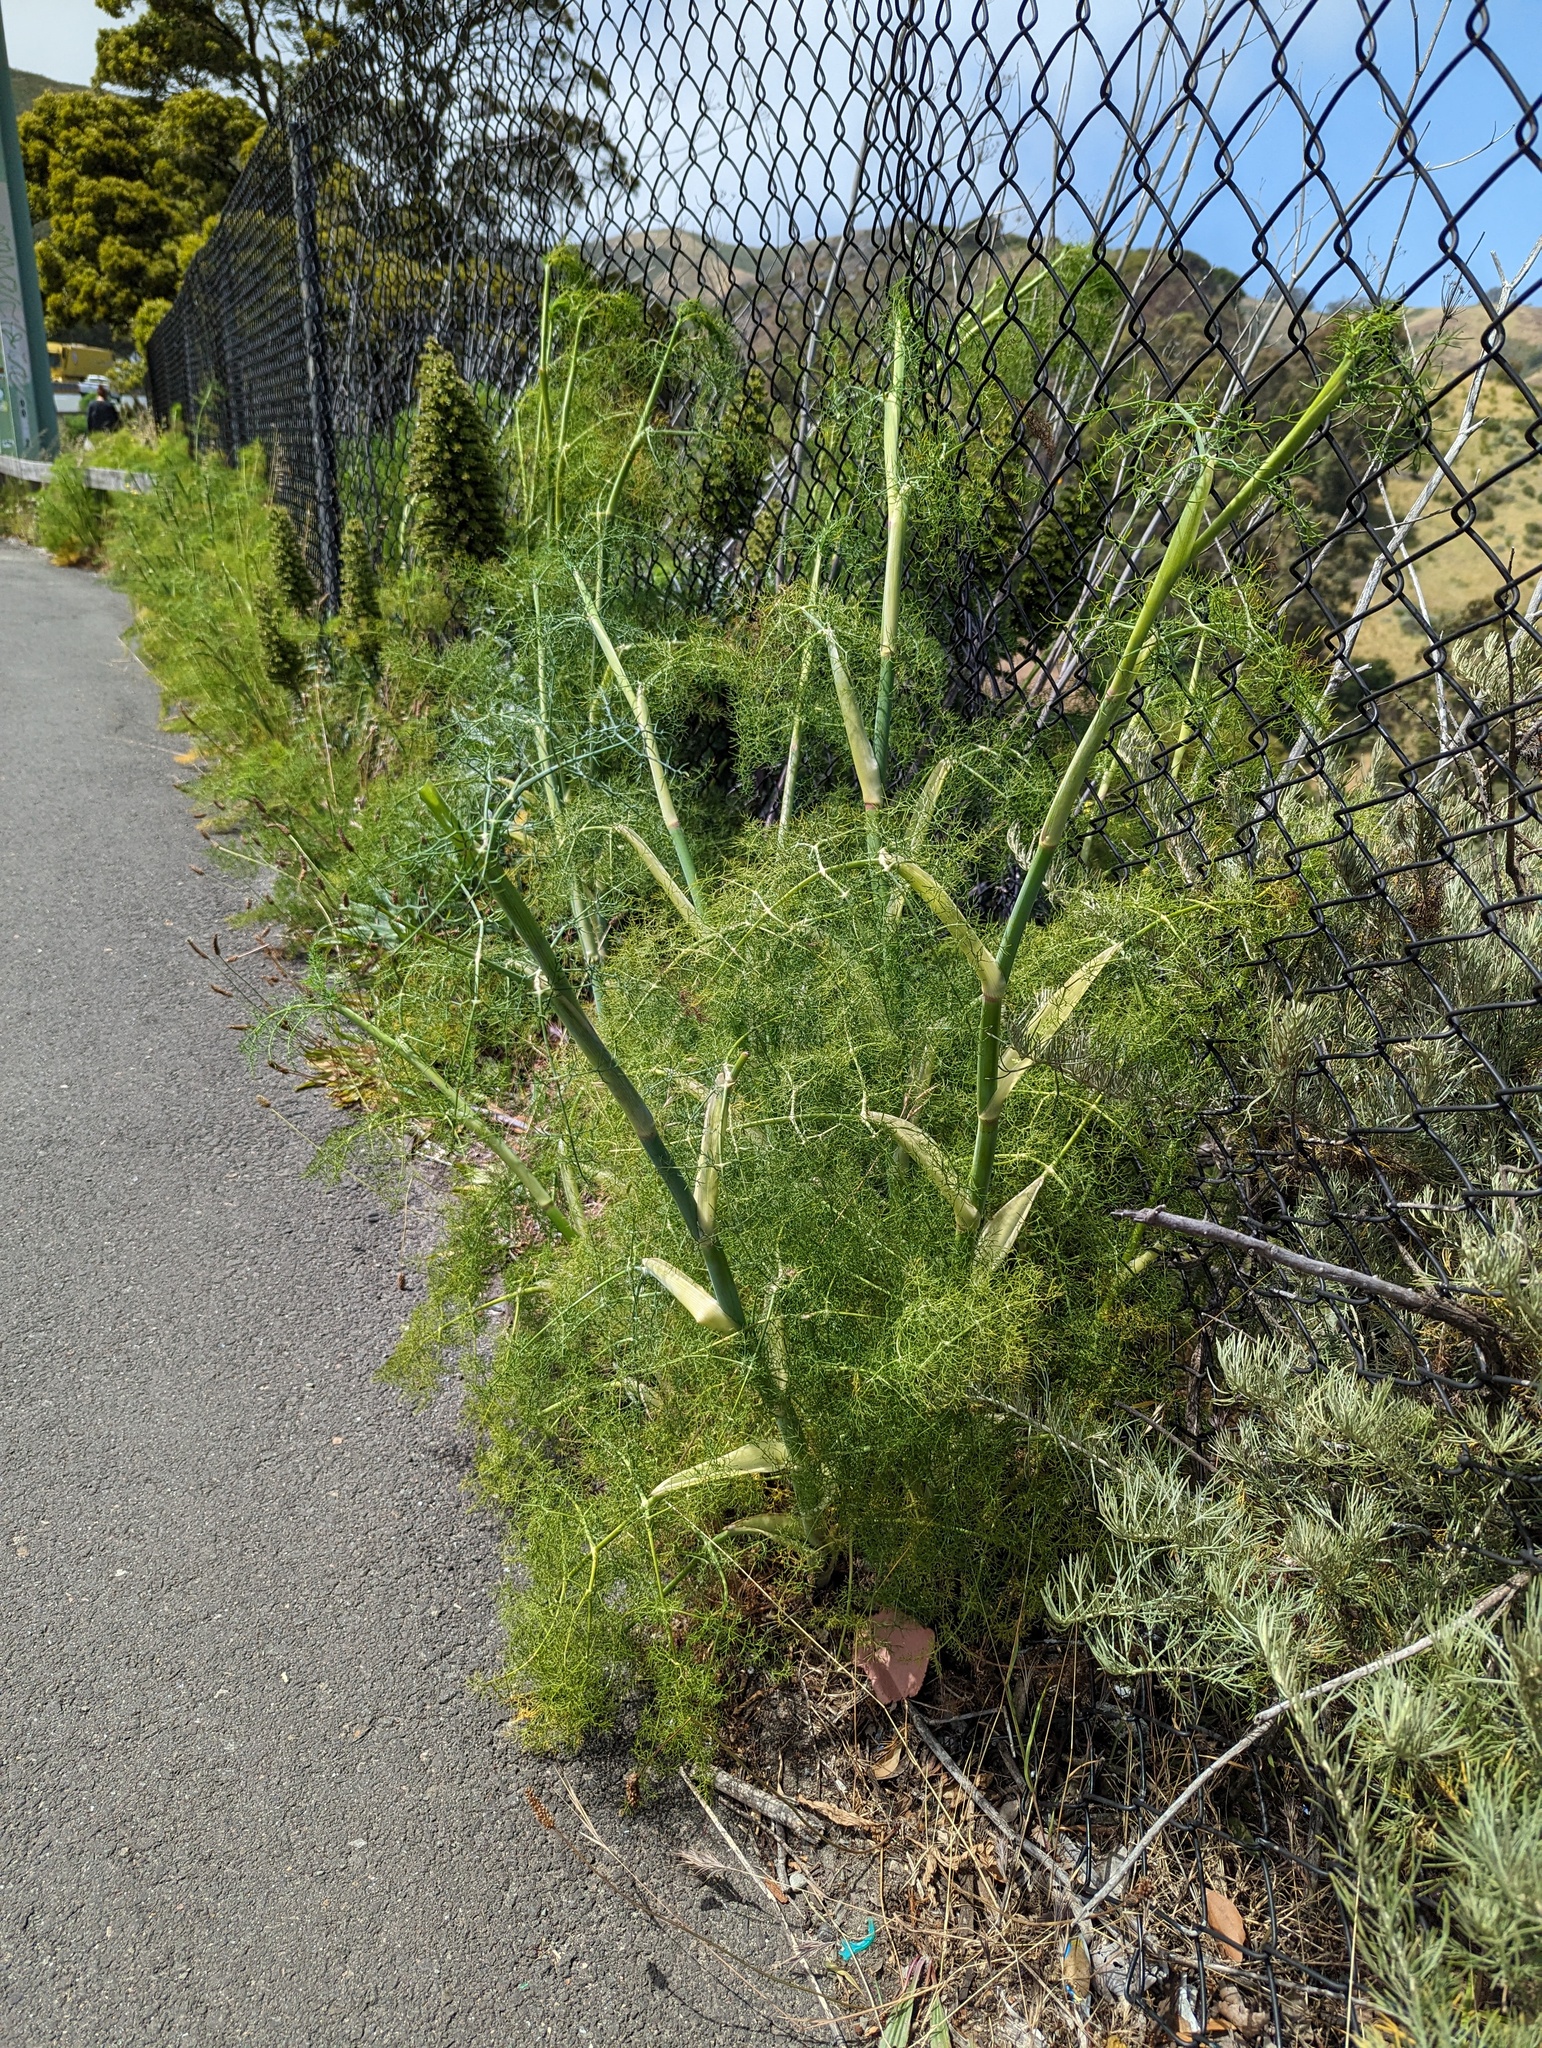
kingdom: Plantae
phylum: Tracheophyta
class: Magnoliopsida
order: Apiales
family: Apiaceae
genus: Foeniculum
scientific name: Foeniculum vulgare
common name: Fennel
